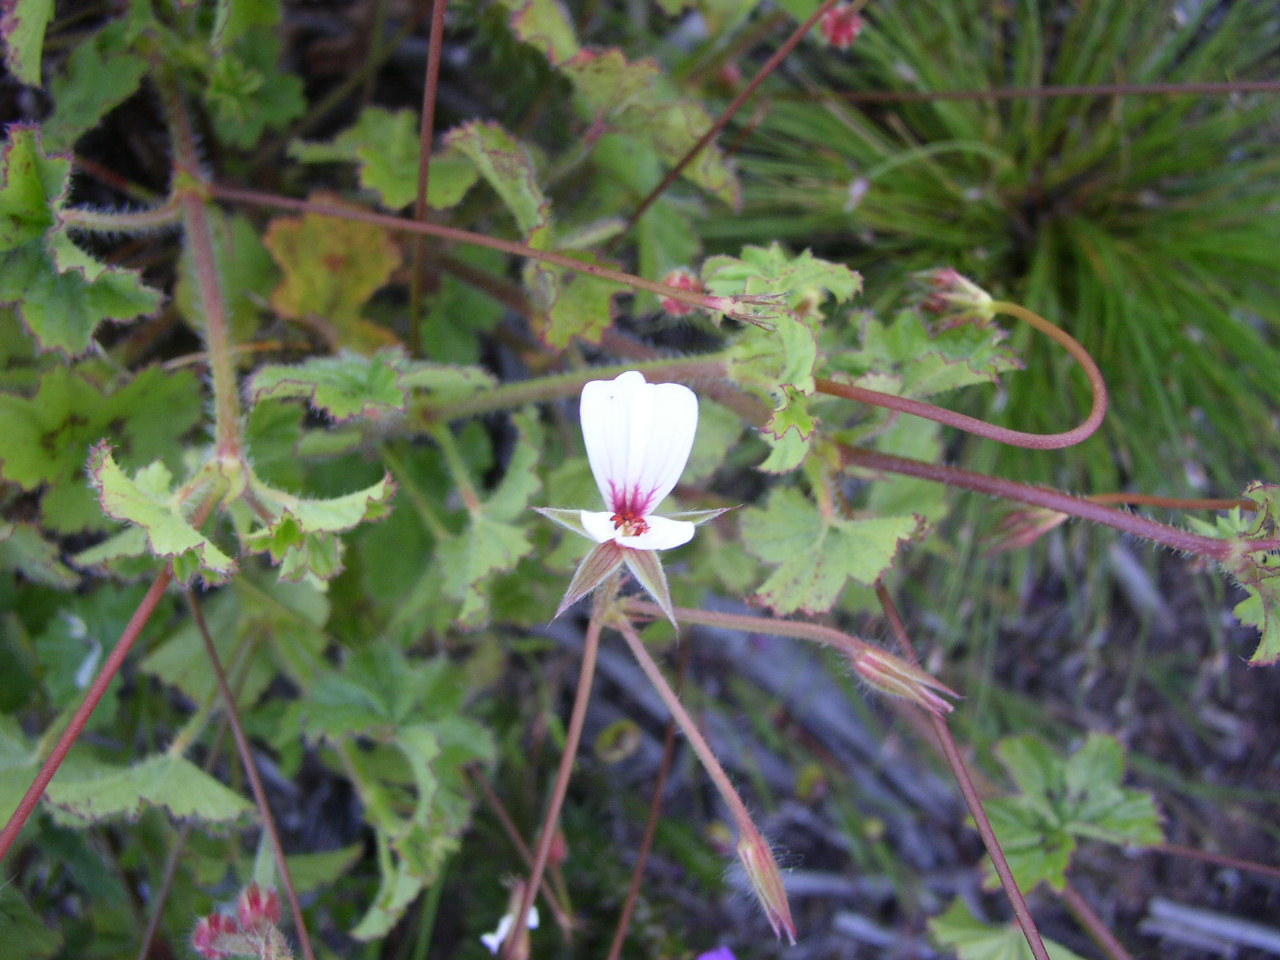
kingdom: Plantae
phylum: Tracheophyta
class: Magnoliopsida
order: Geraniales
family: Geraniaceae
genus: Pelargonium
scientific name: Pelargonium elongatum
